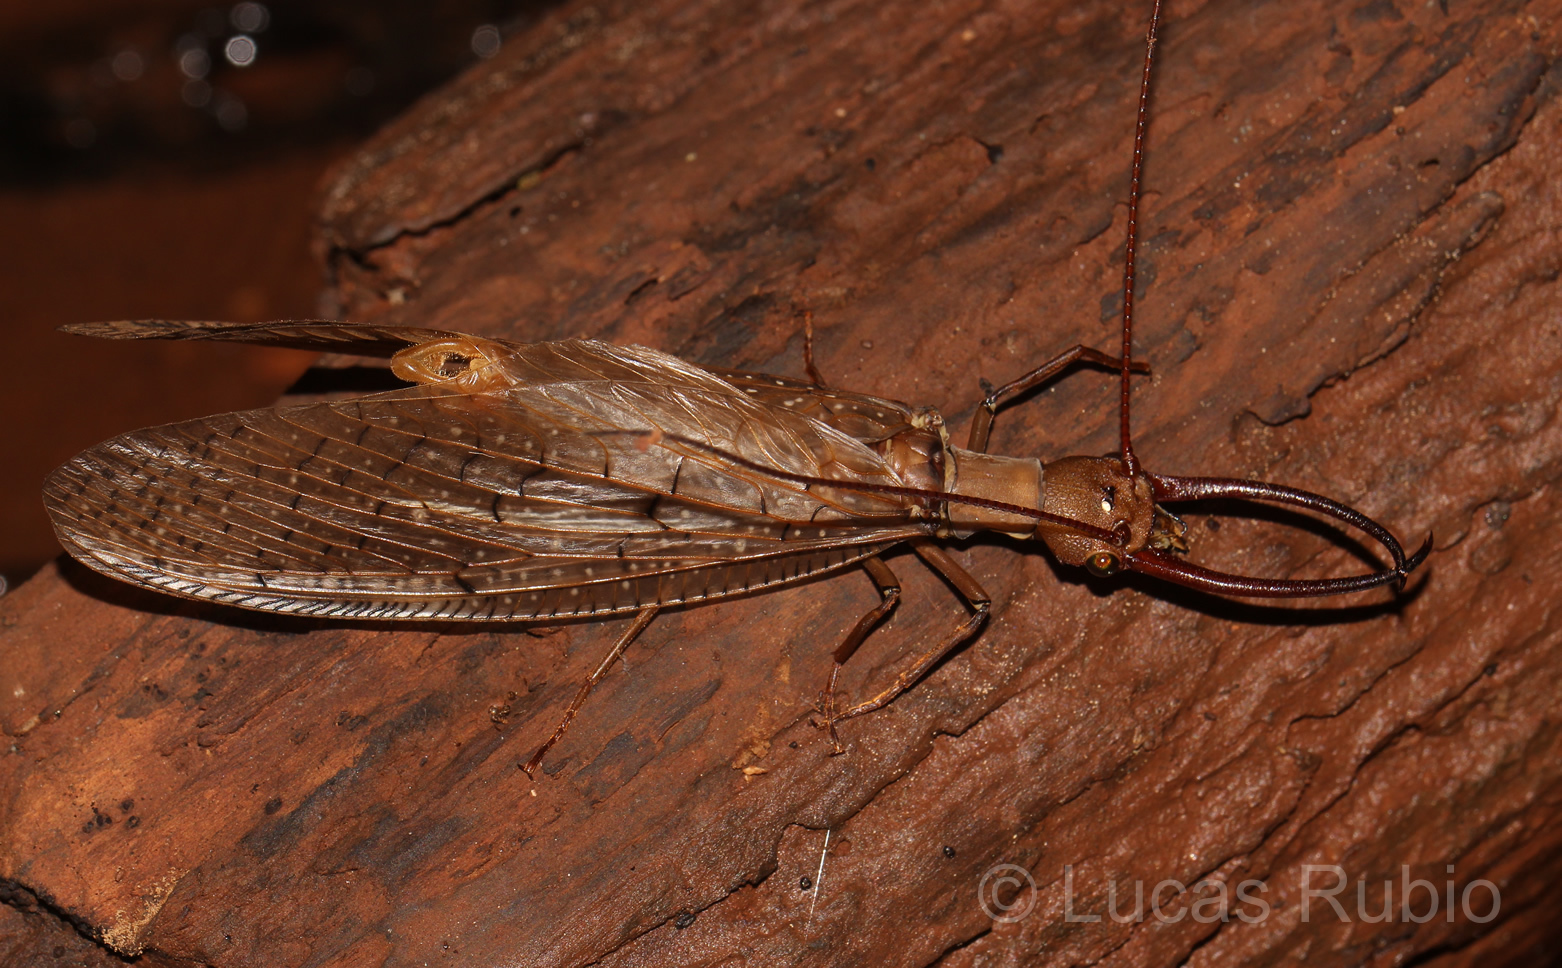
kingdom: Animalia
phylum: Arthropoda
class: Insecta
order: Megaloptera
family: Corydalidae
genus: Corydalus
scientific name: Corydalus australis
